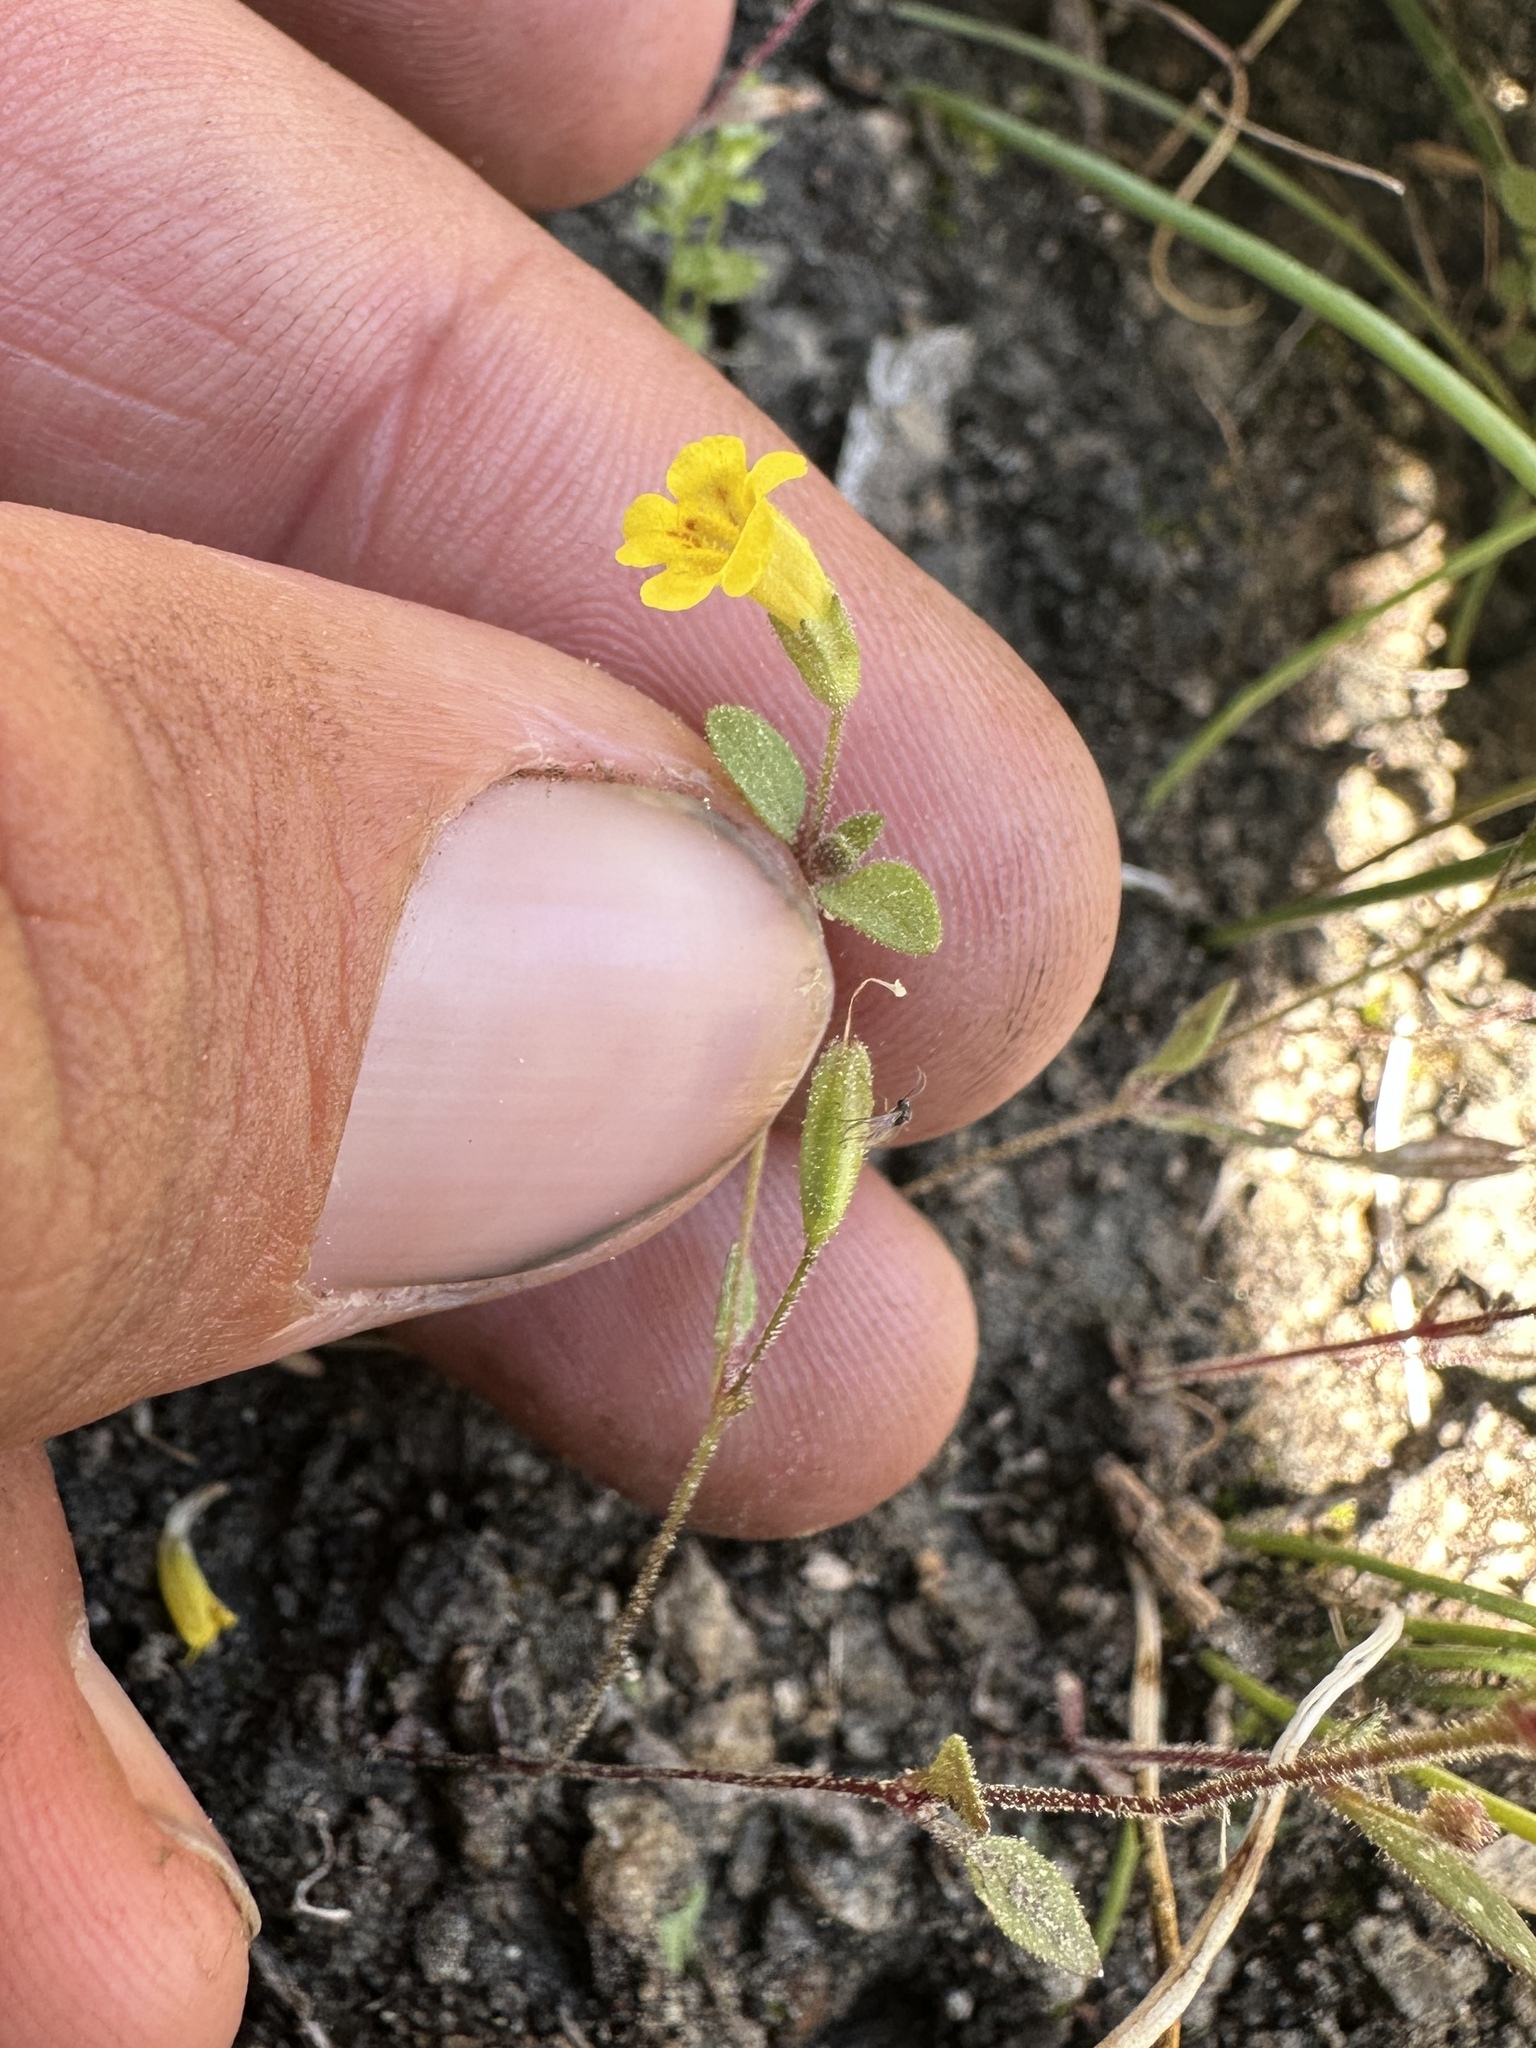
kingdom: Plantae
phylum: Tracheophyta
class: Magnoliopsida
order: Lamiales
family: Phrymaceae
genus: Erythranthe
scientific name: Erythranthe pulsiferae
